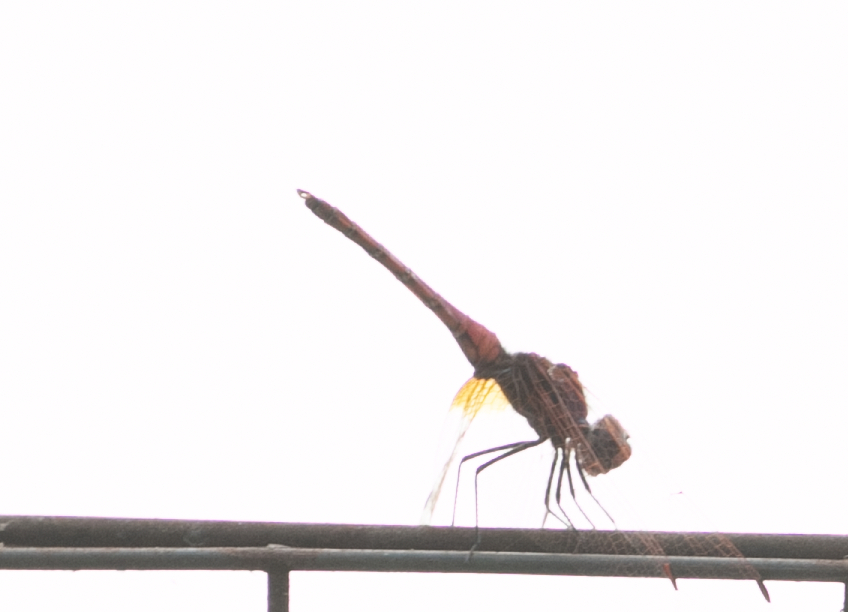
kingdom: Animalia
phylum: Arthropoda
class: Insecta
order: Odonata
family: Libellulidae
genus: Trithemis
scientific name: Trithemis annulata
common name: Violet dropwing
